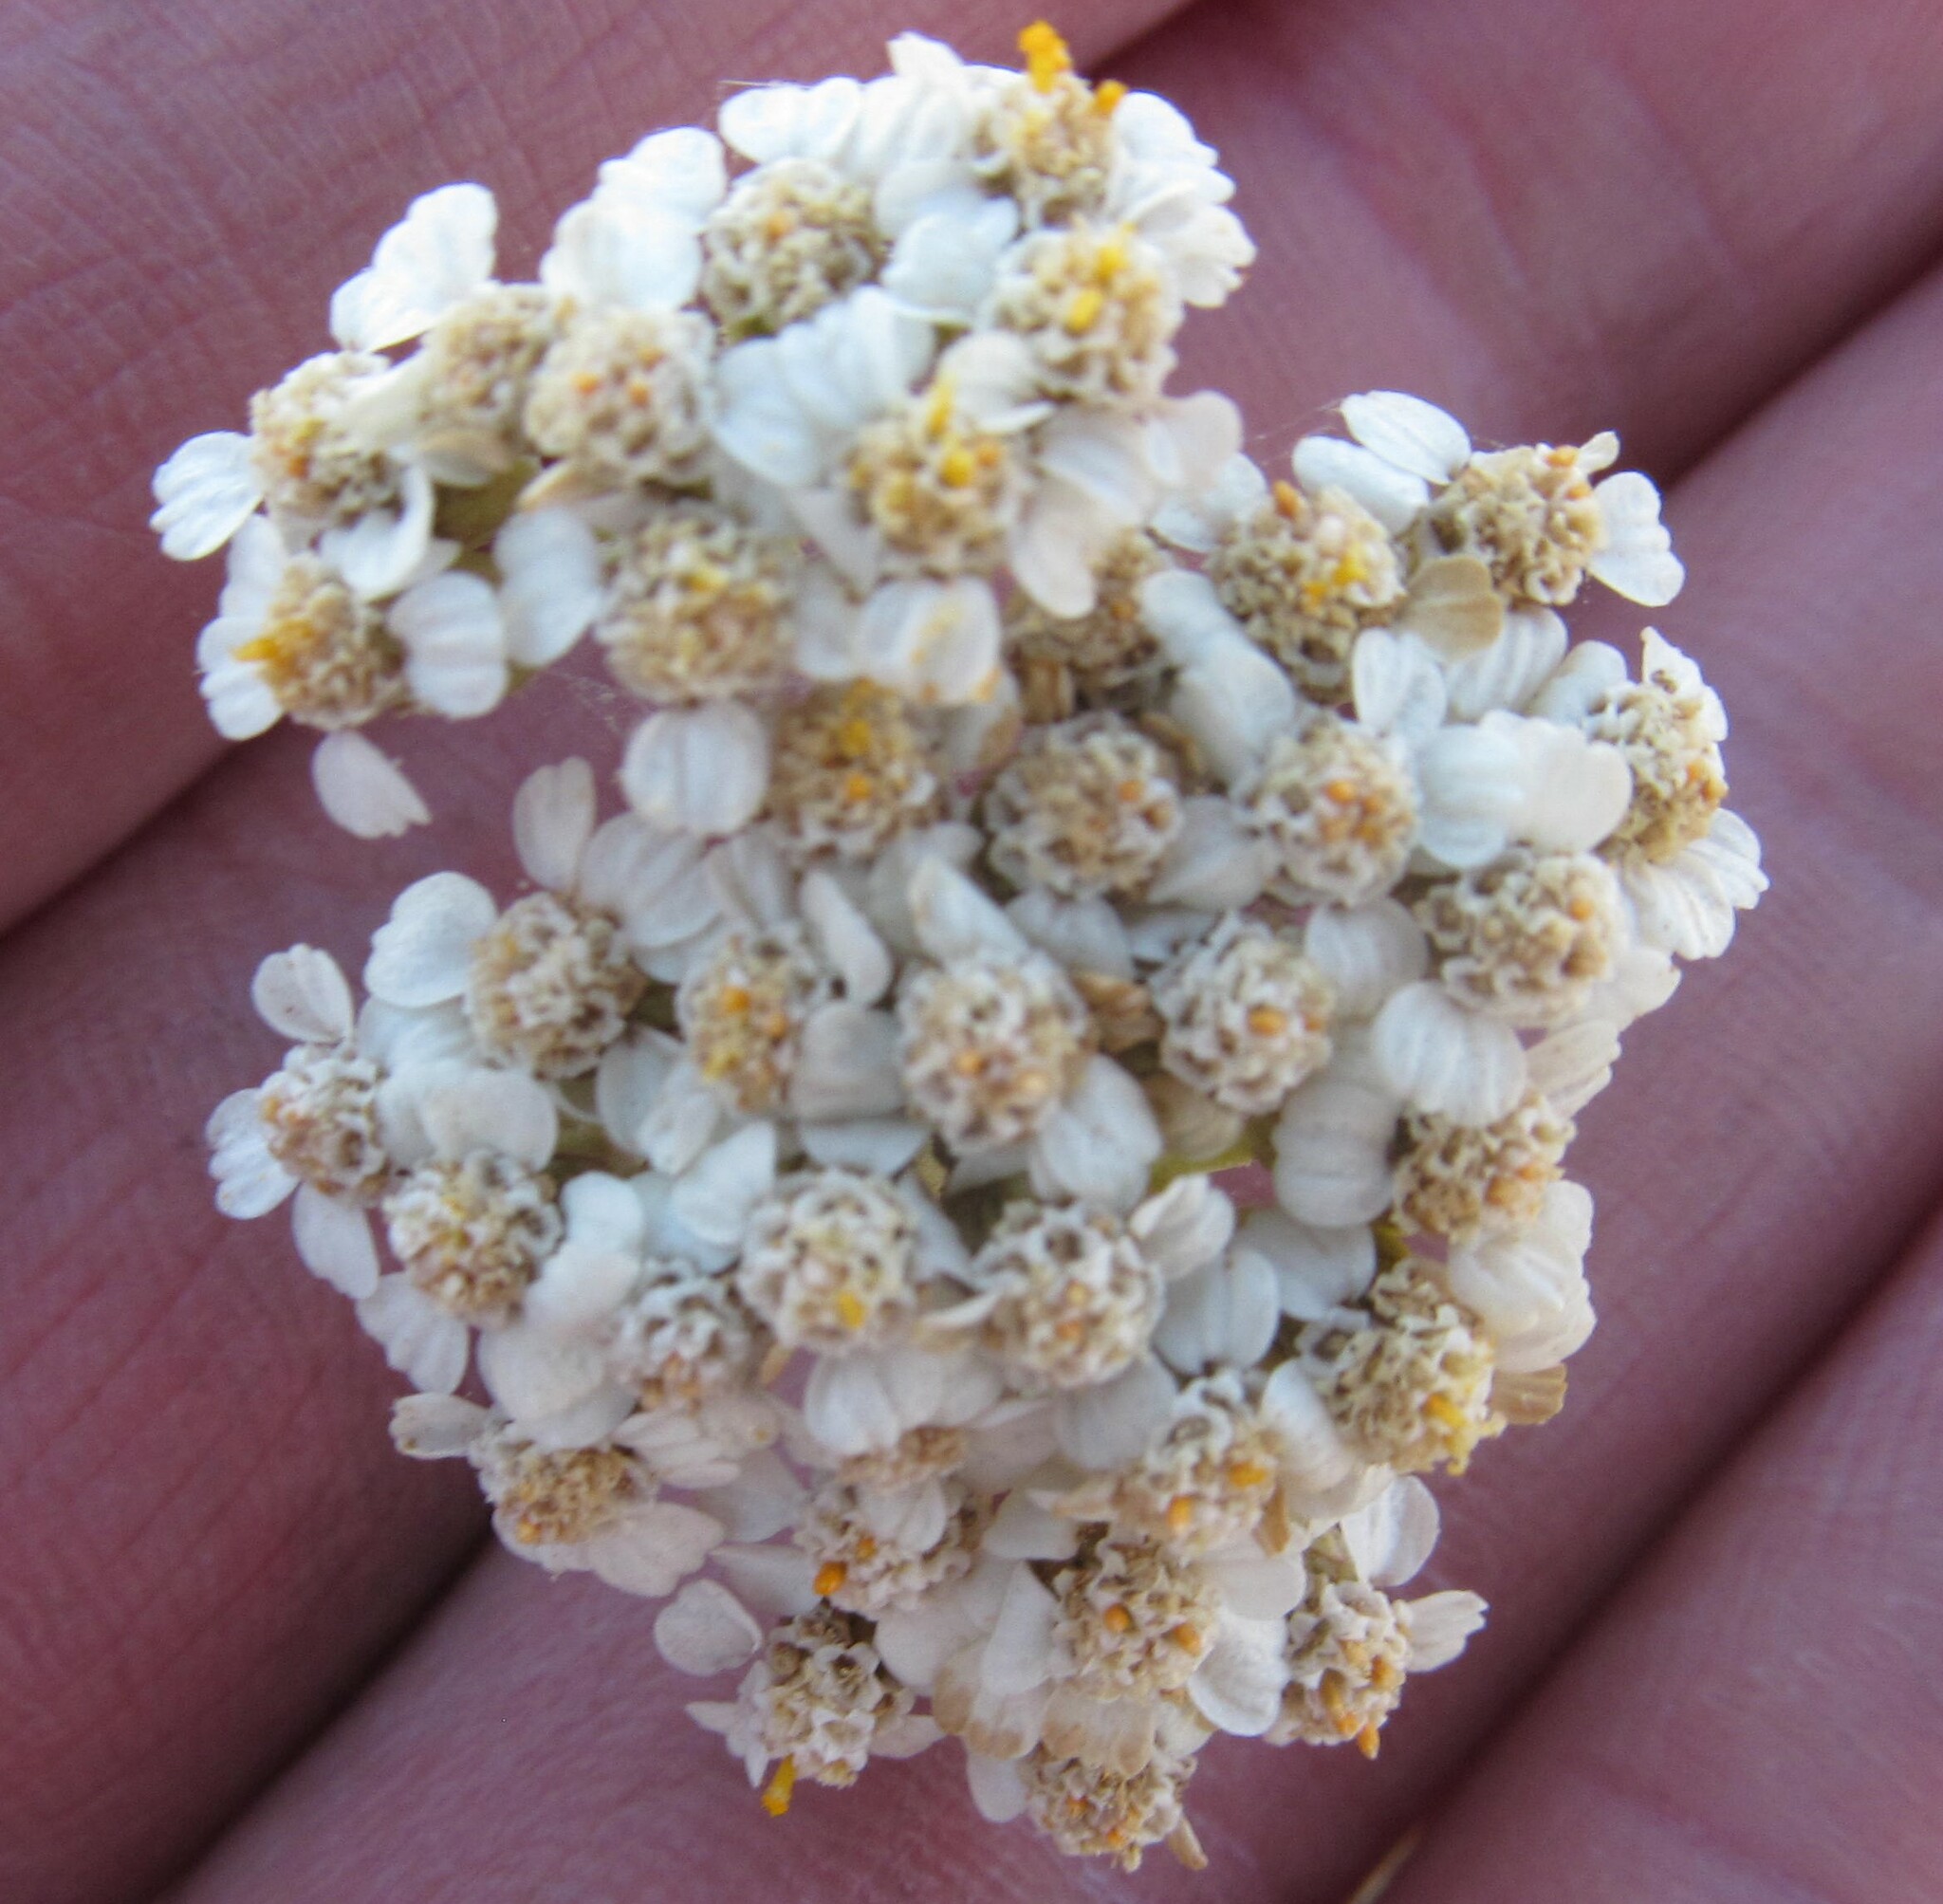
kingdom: Plantae
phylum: Tracheophyta
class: Magnoliopsida
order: Asterales
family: Asteraceae
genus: Achillea
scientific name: Achillea millefolium
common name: Yarrow
